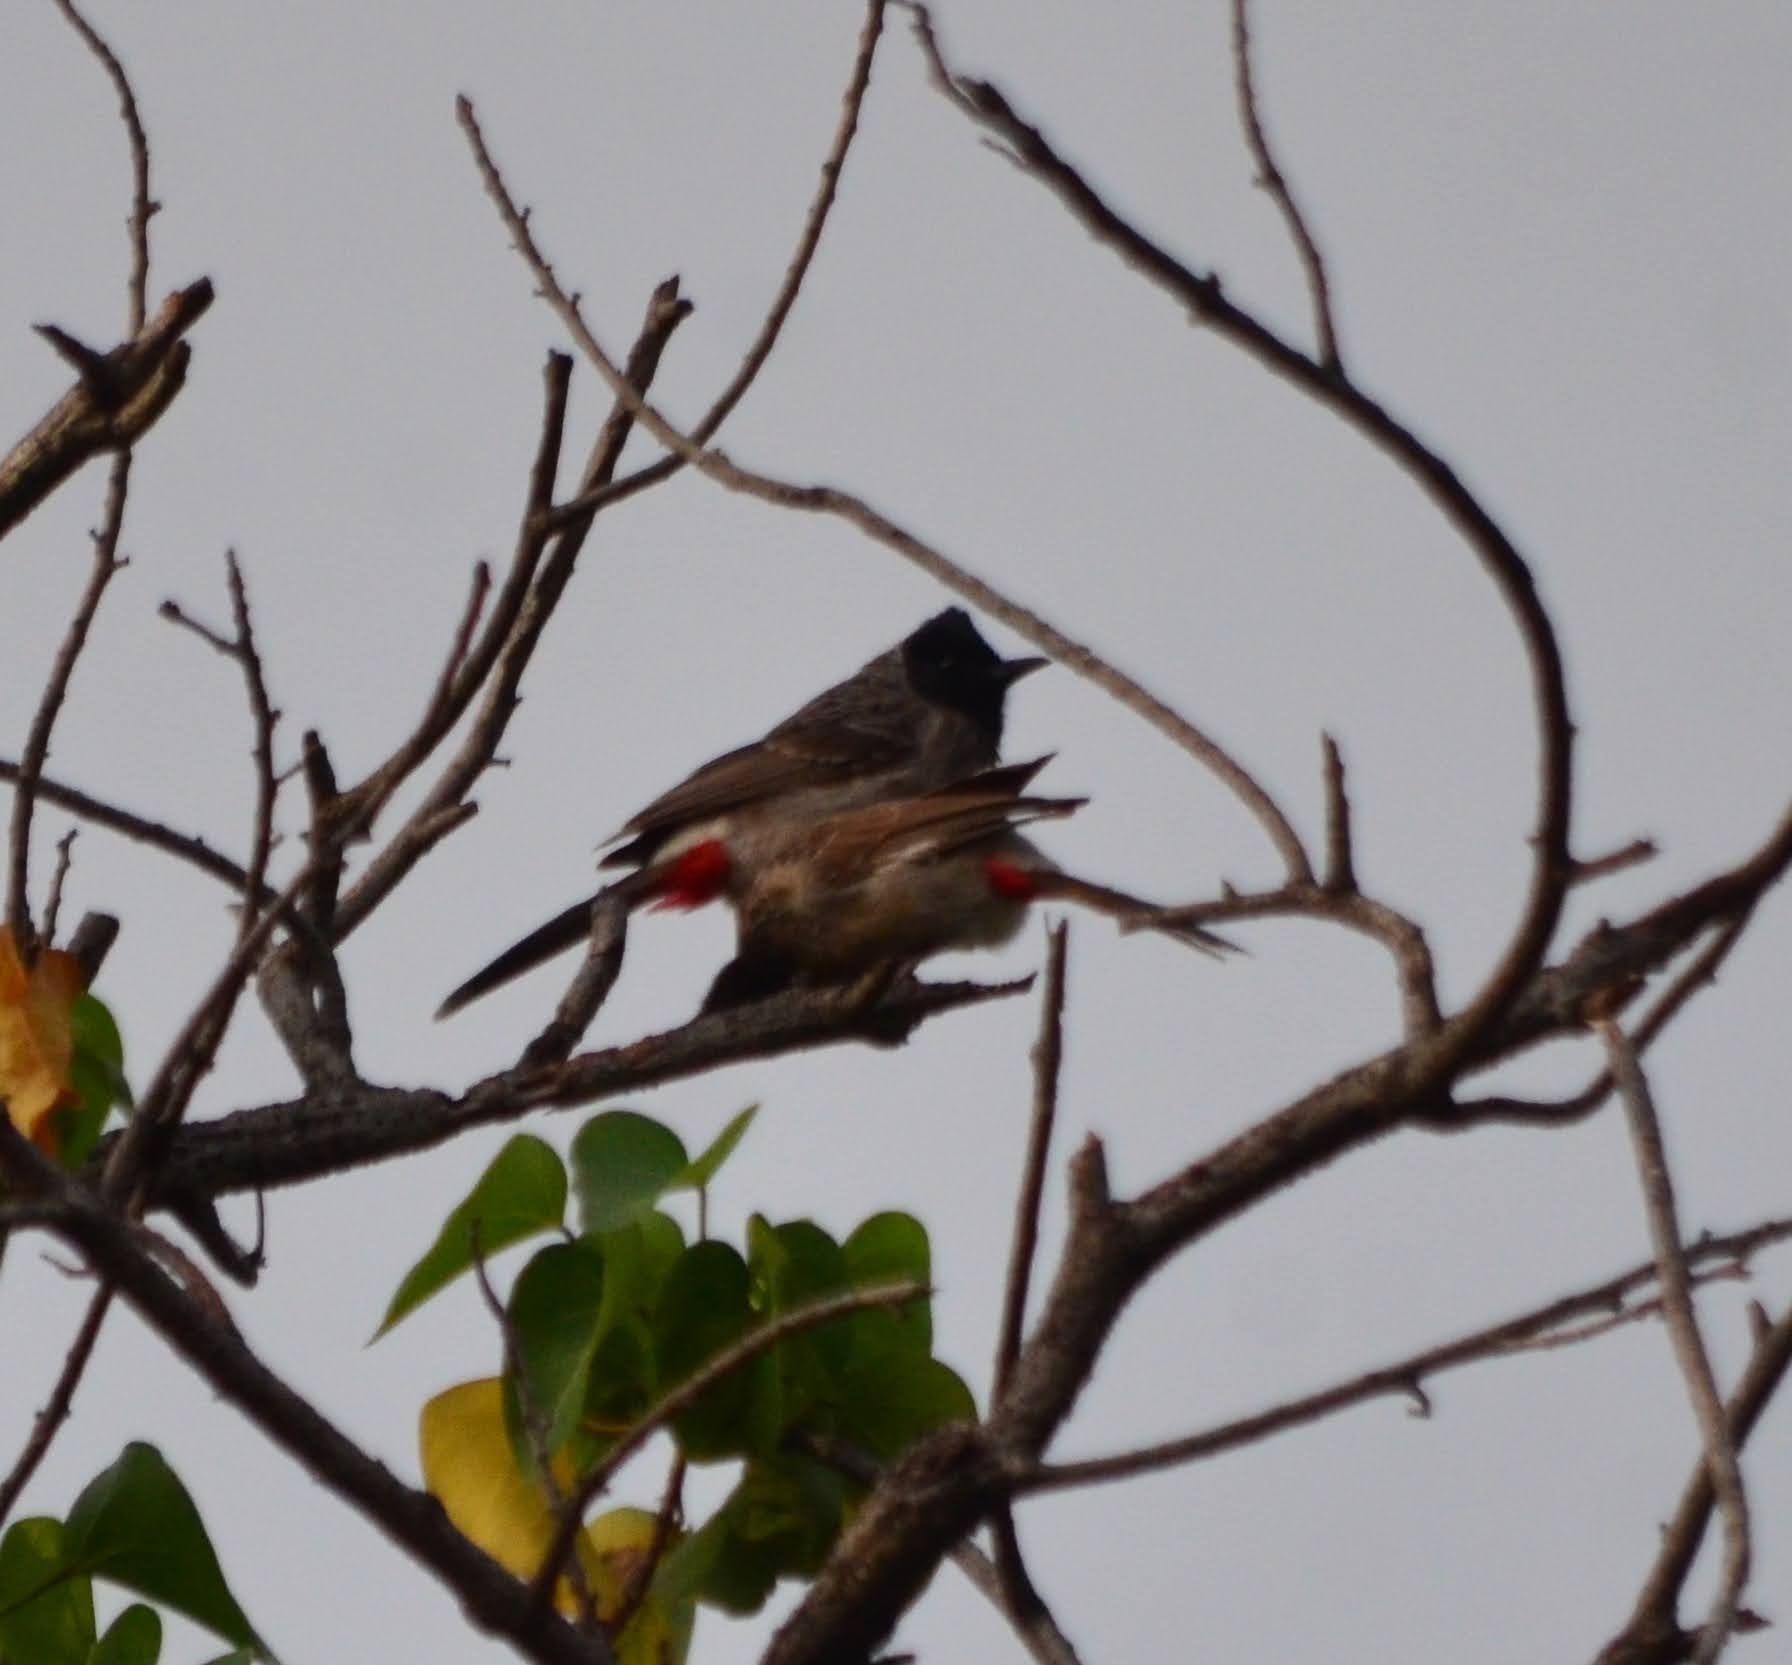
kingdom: Animalia
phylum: Chordata
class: Aves
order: Passeriformes
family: Pycnonotidae
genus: Pycnonotus
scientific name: Pycnonotus cafer
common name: Red-vented bulbul
